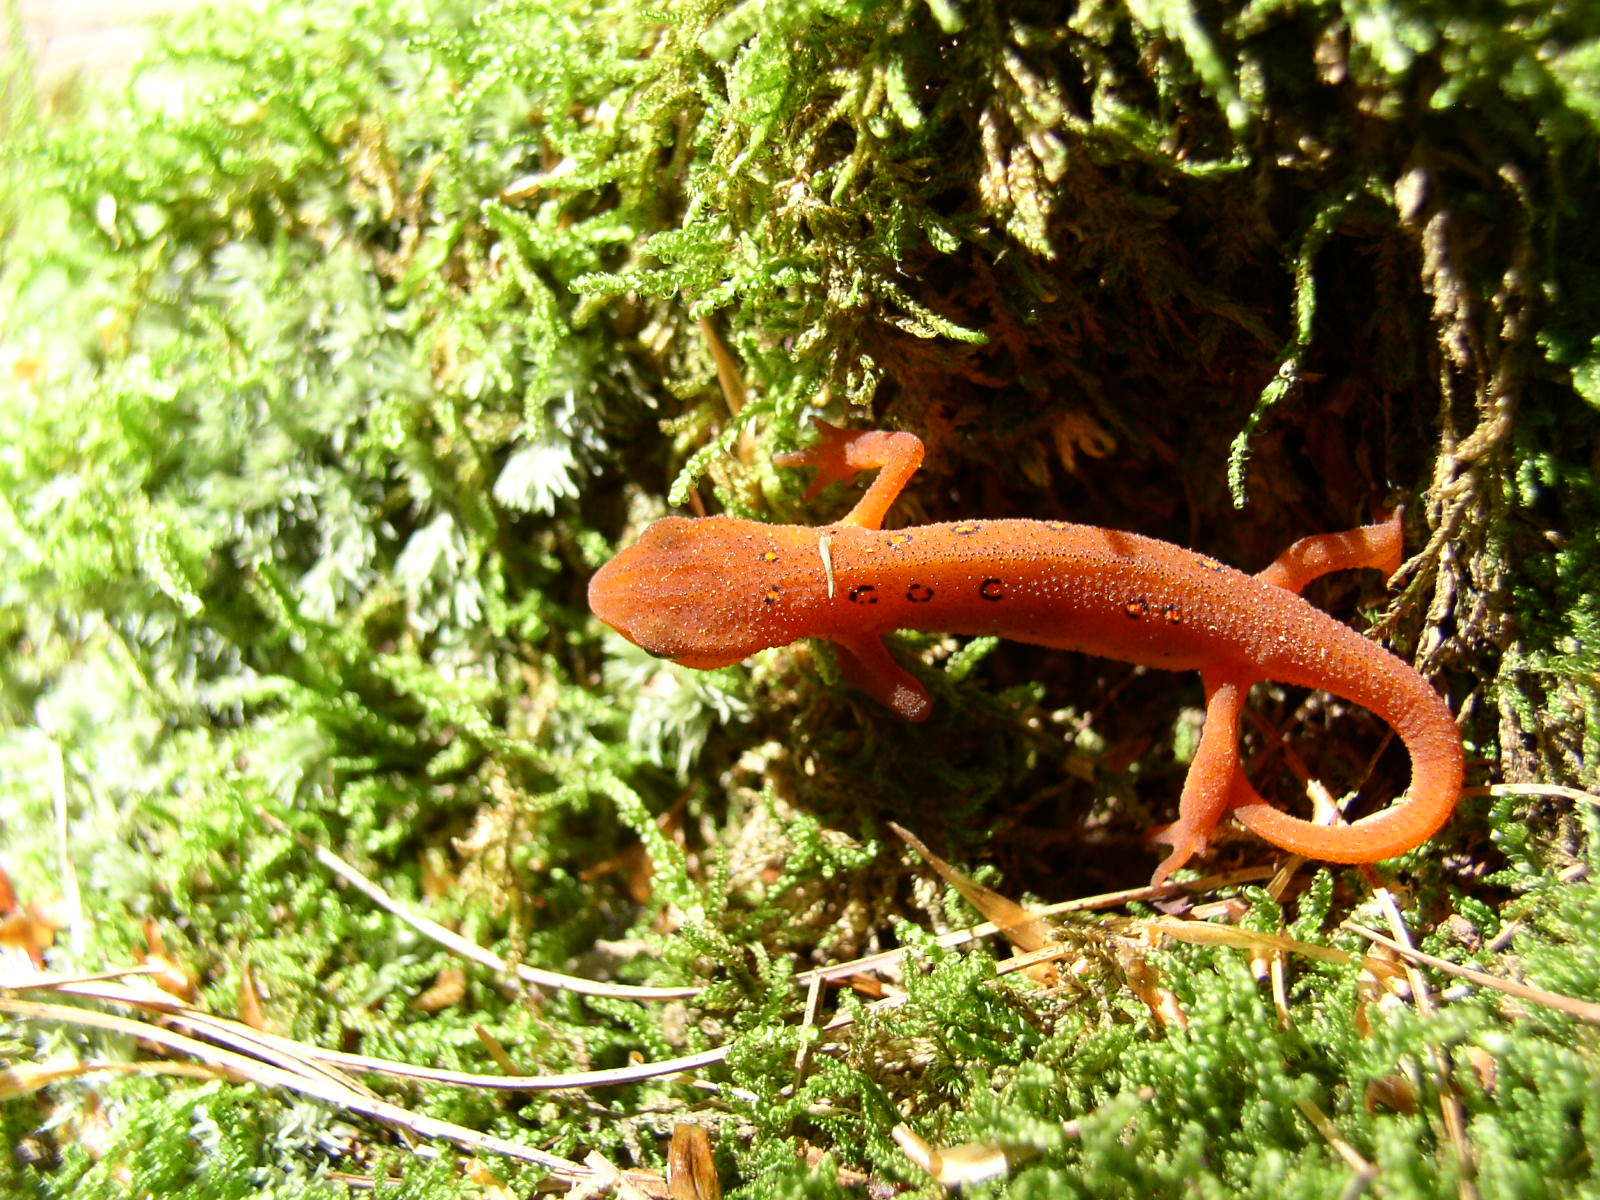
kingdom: Animalia
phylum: Chordata
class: Amphibia
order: Caudata
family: Salamandridae
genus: Notophthalmus
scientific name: Notophthalmus viridescens
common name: Eastern newt
